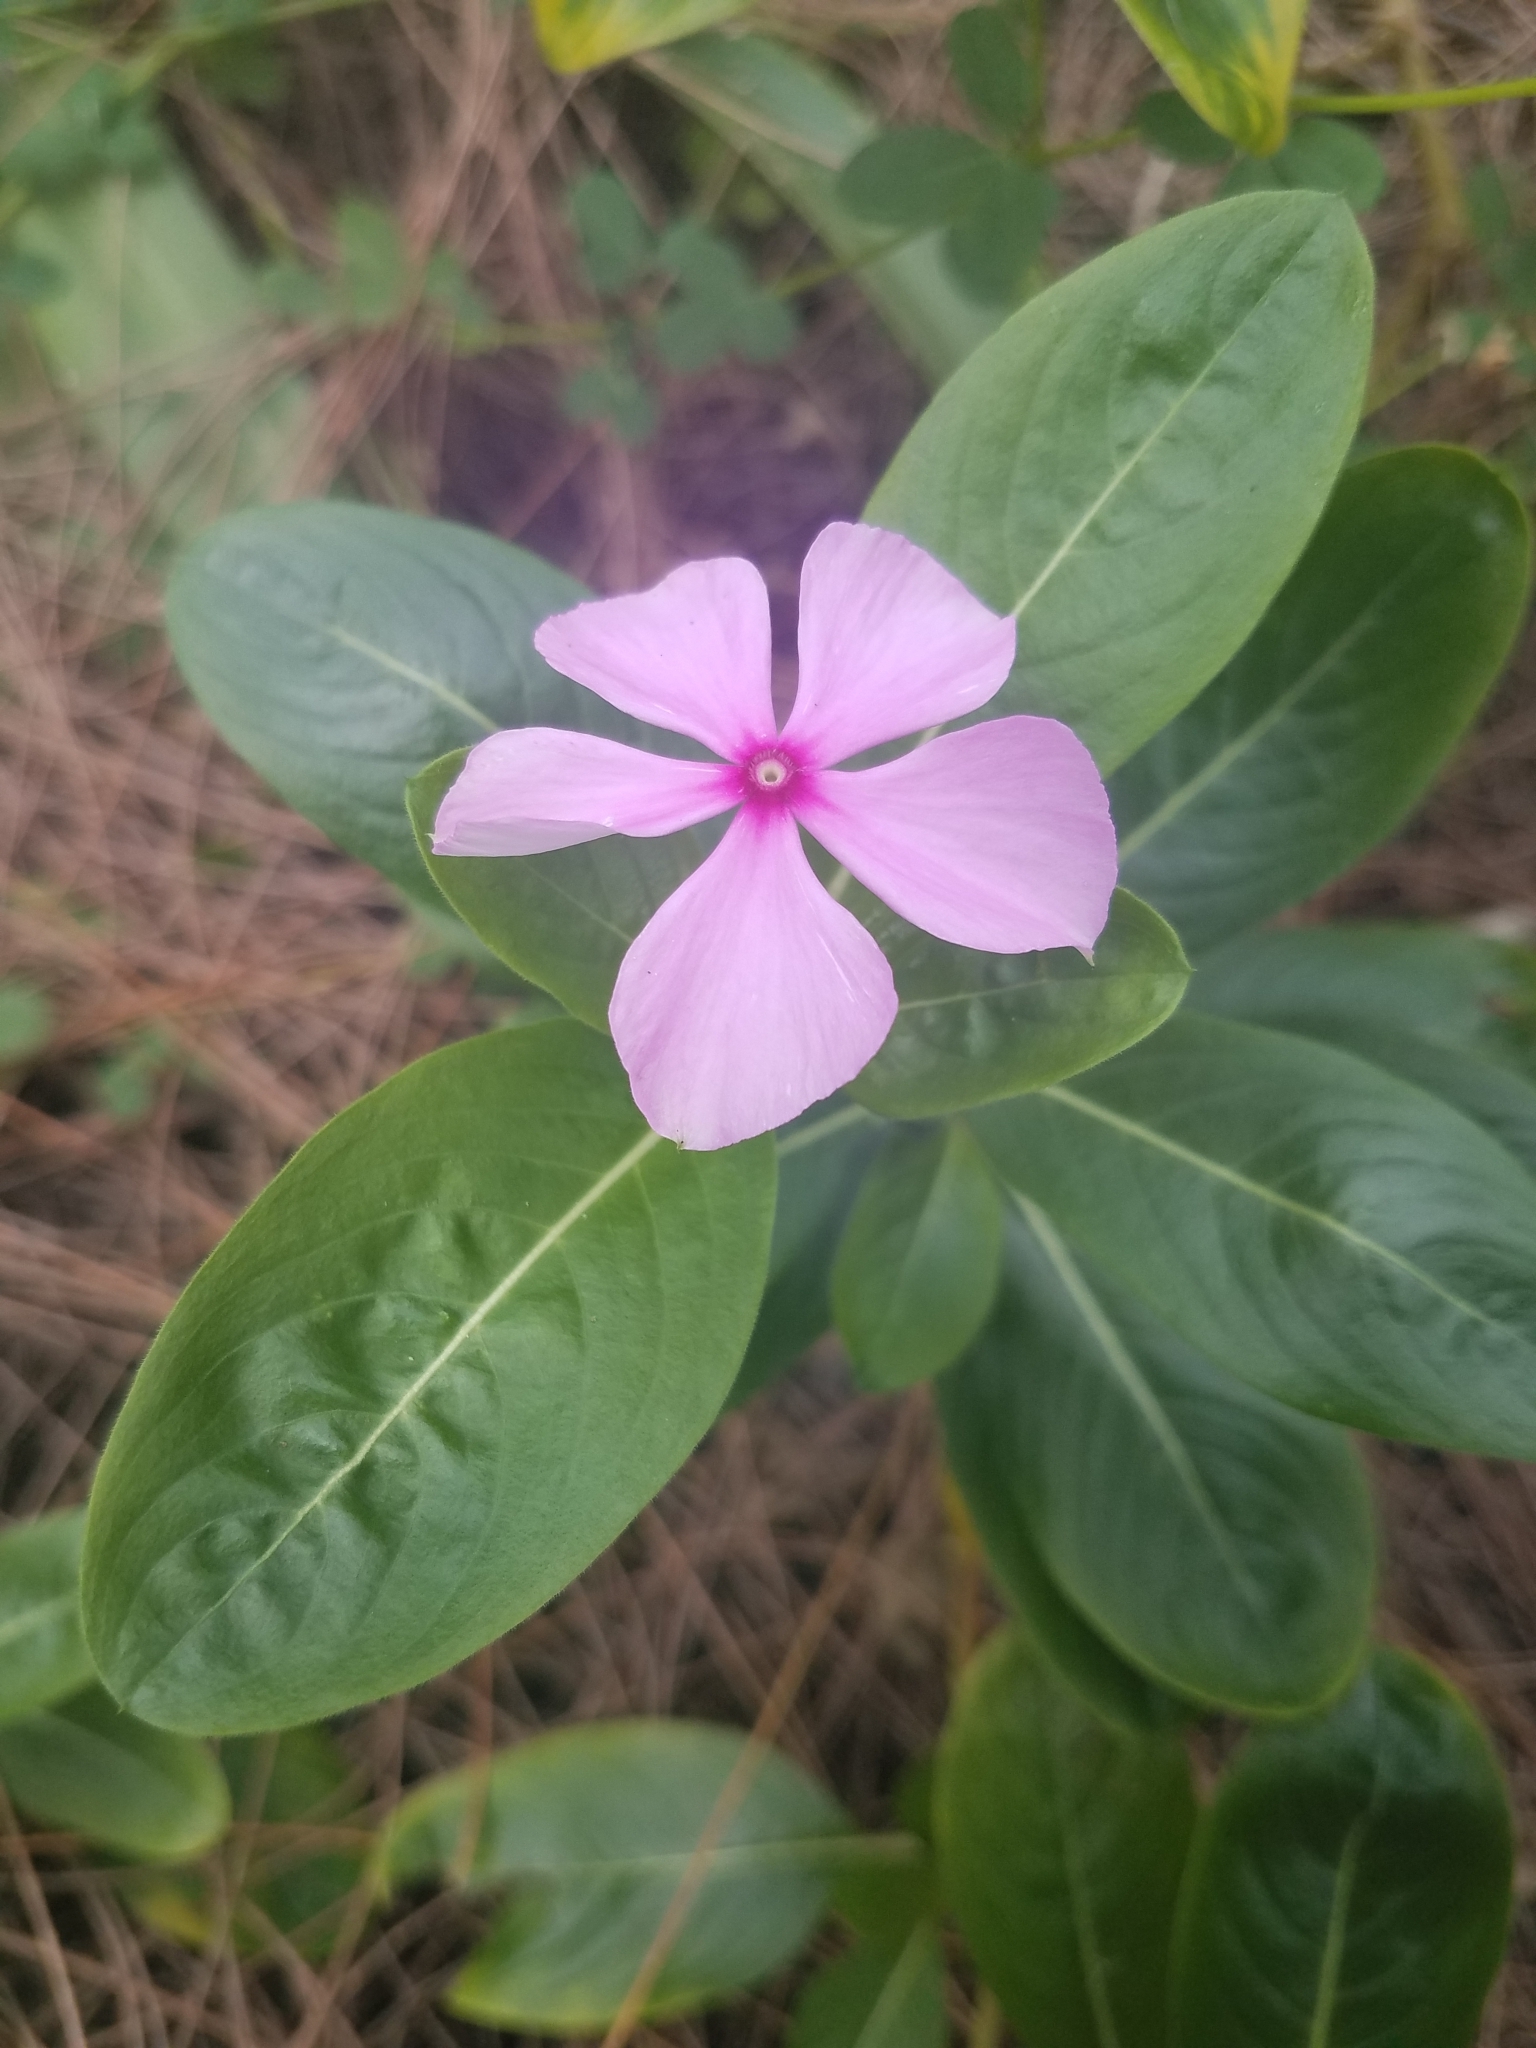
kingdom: Plantae
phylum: Tracheophyta
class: Magnoliopsida
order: Gentianales
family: Apocynaceae
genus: Catharanthus
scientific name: Catharanthus roseus
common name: Madagascar periwinkle
